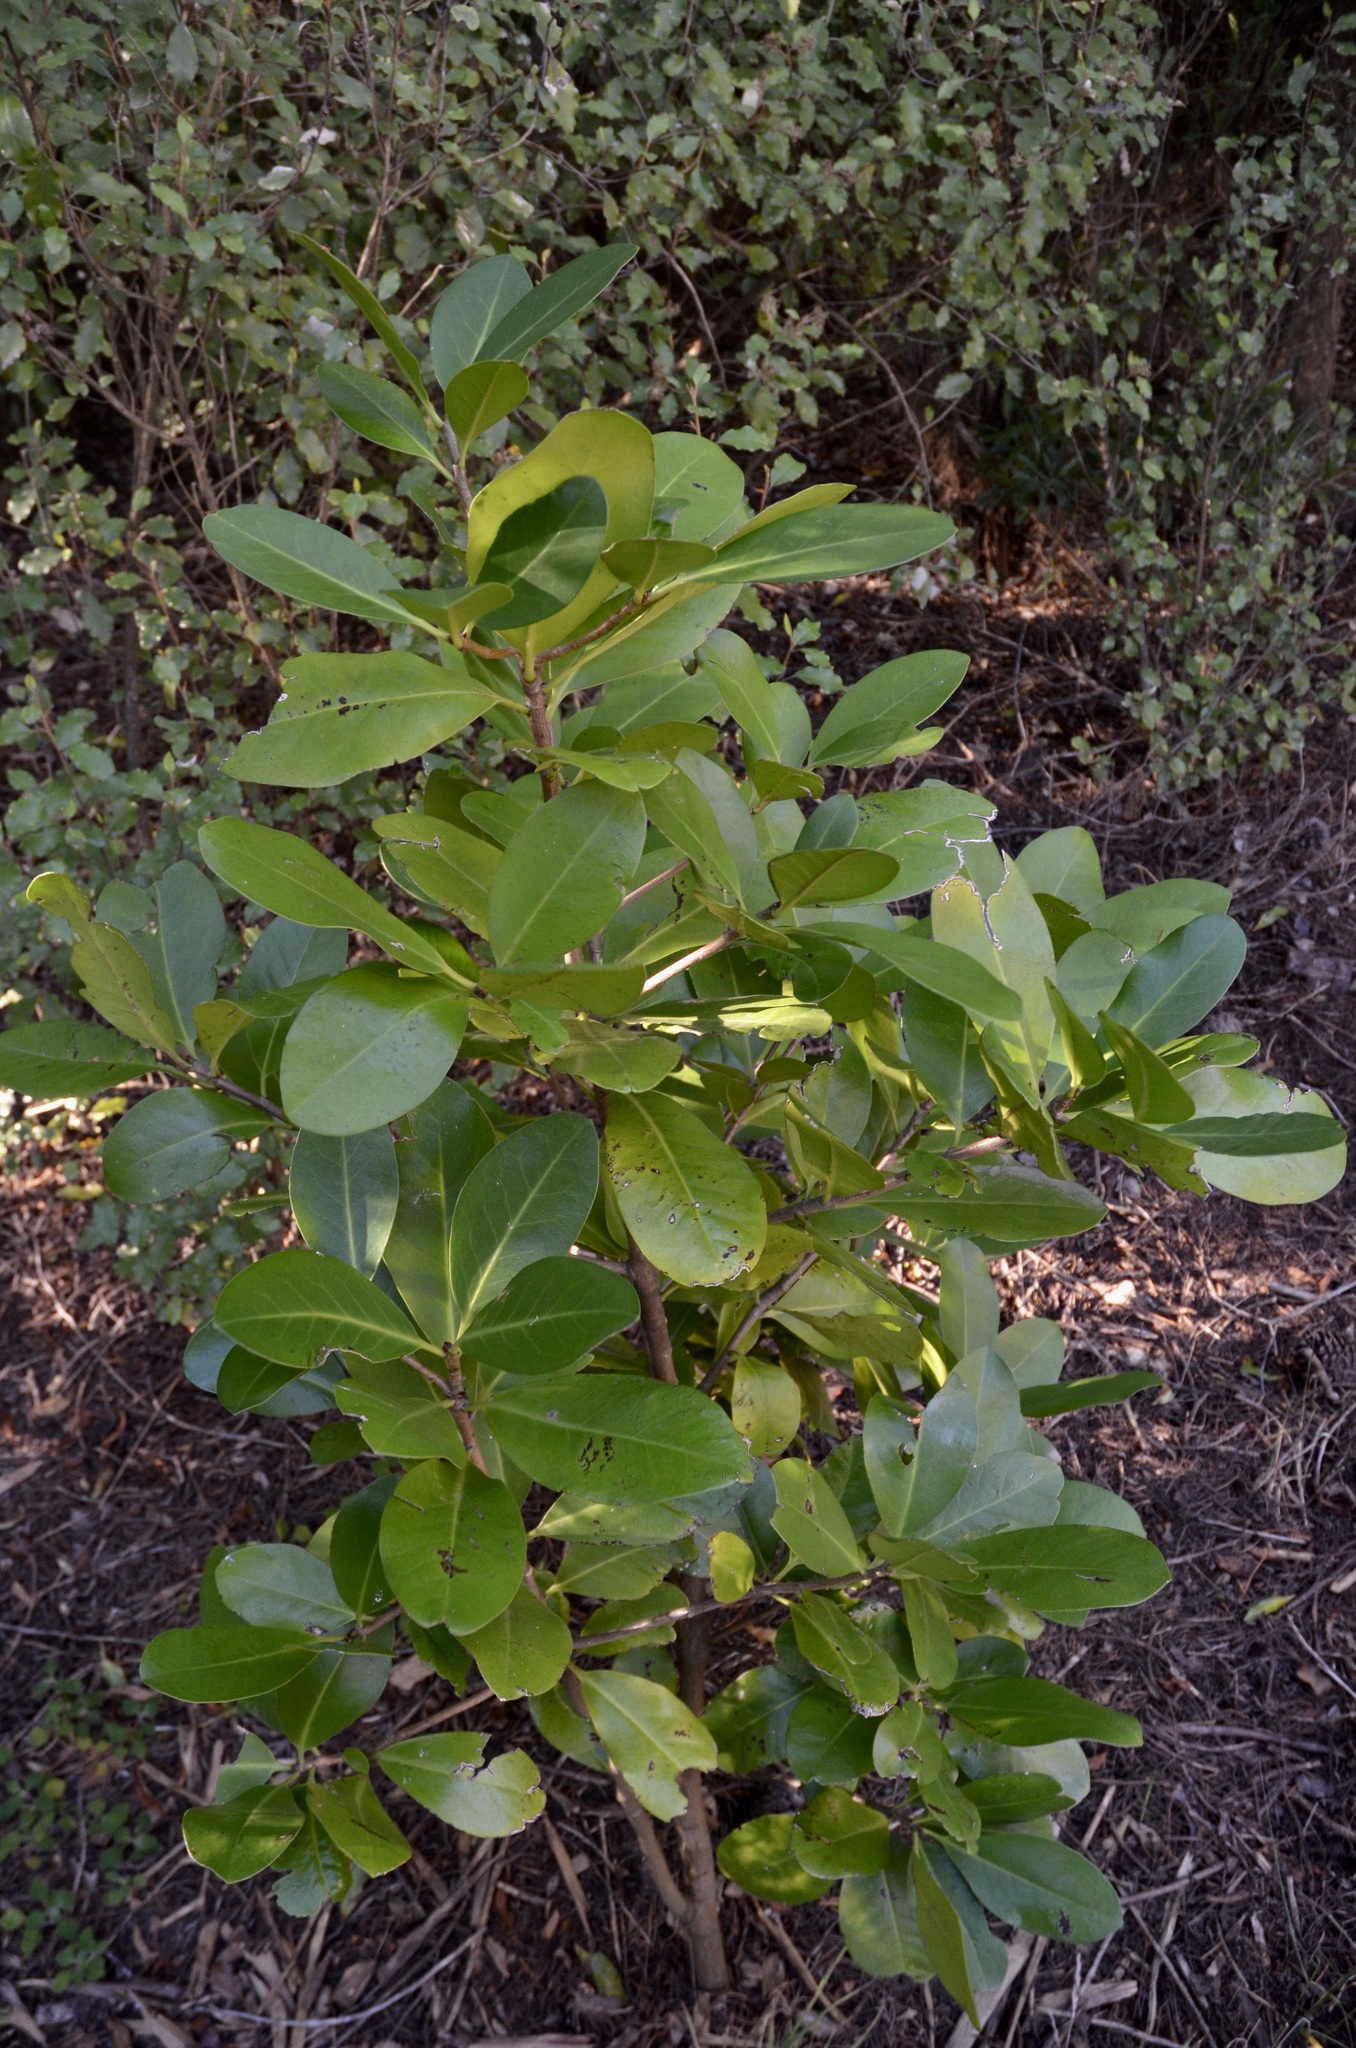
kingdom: Plantae
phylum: Tracheophyta
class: Magnoliopsida
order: Cucurbitales
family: Corynocarpaceae
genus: Corynocarpus
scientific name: Corynocarpus laevigatus
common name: New zealand laurel
